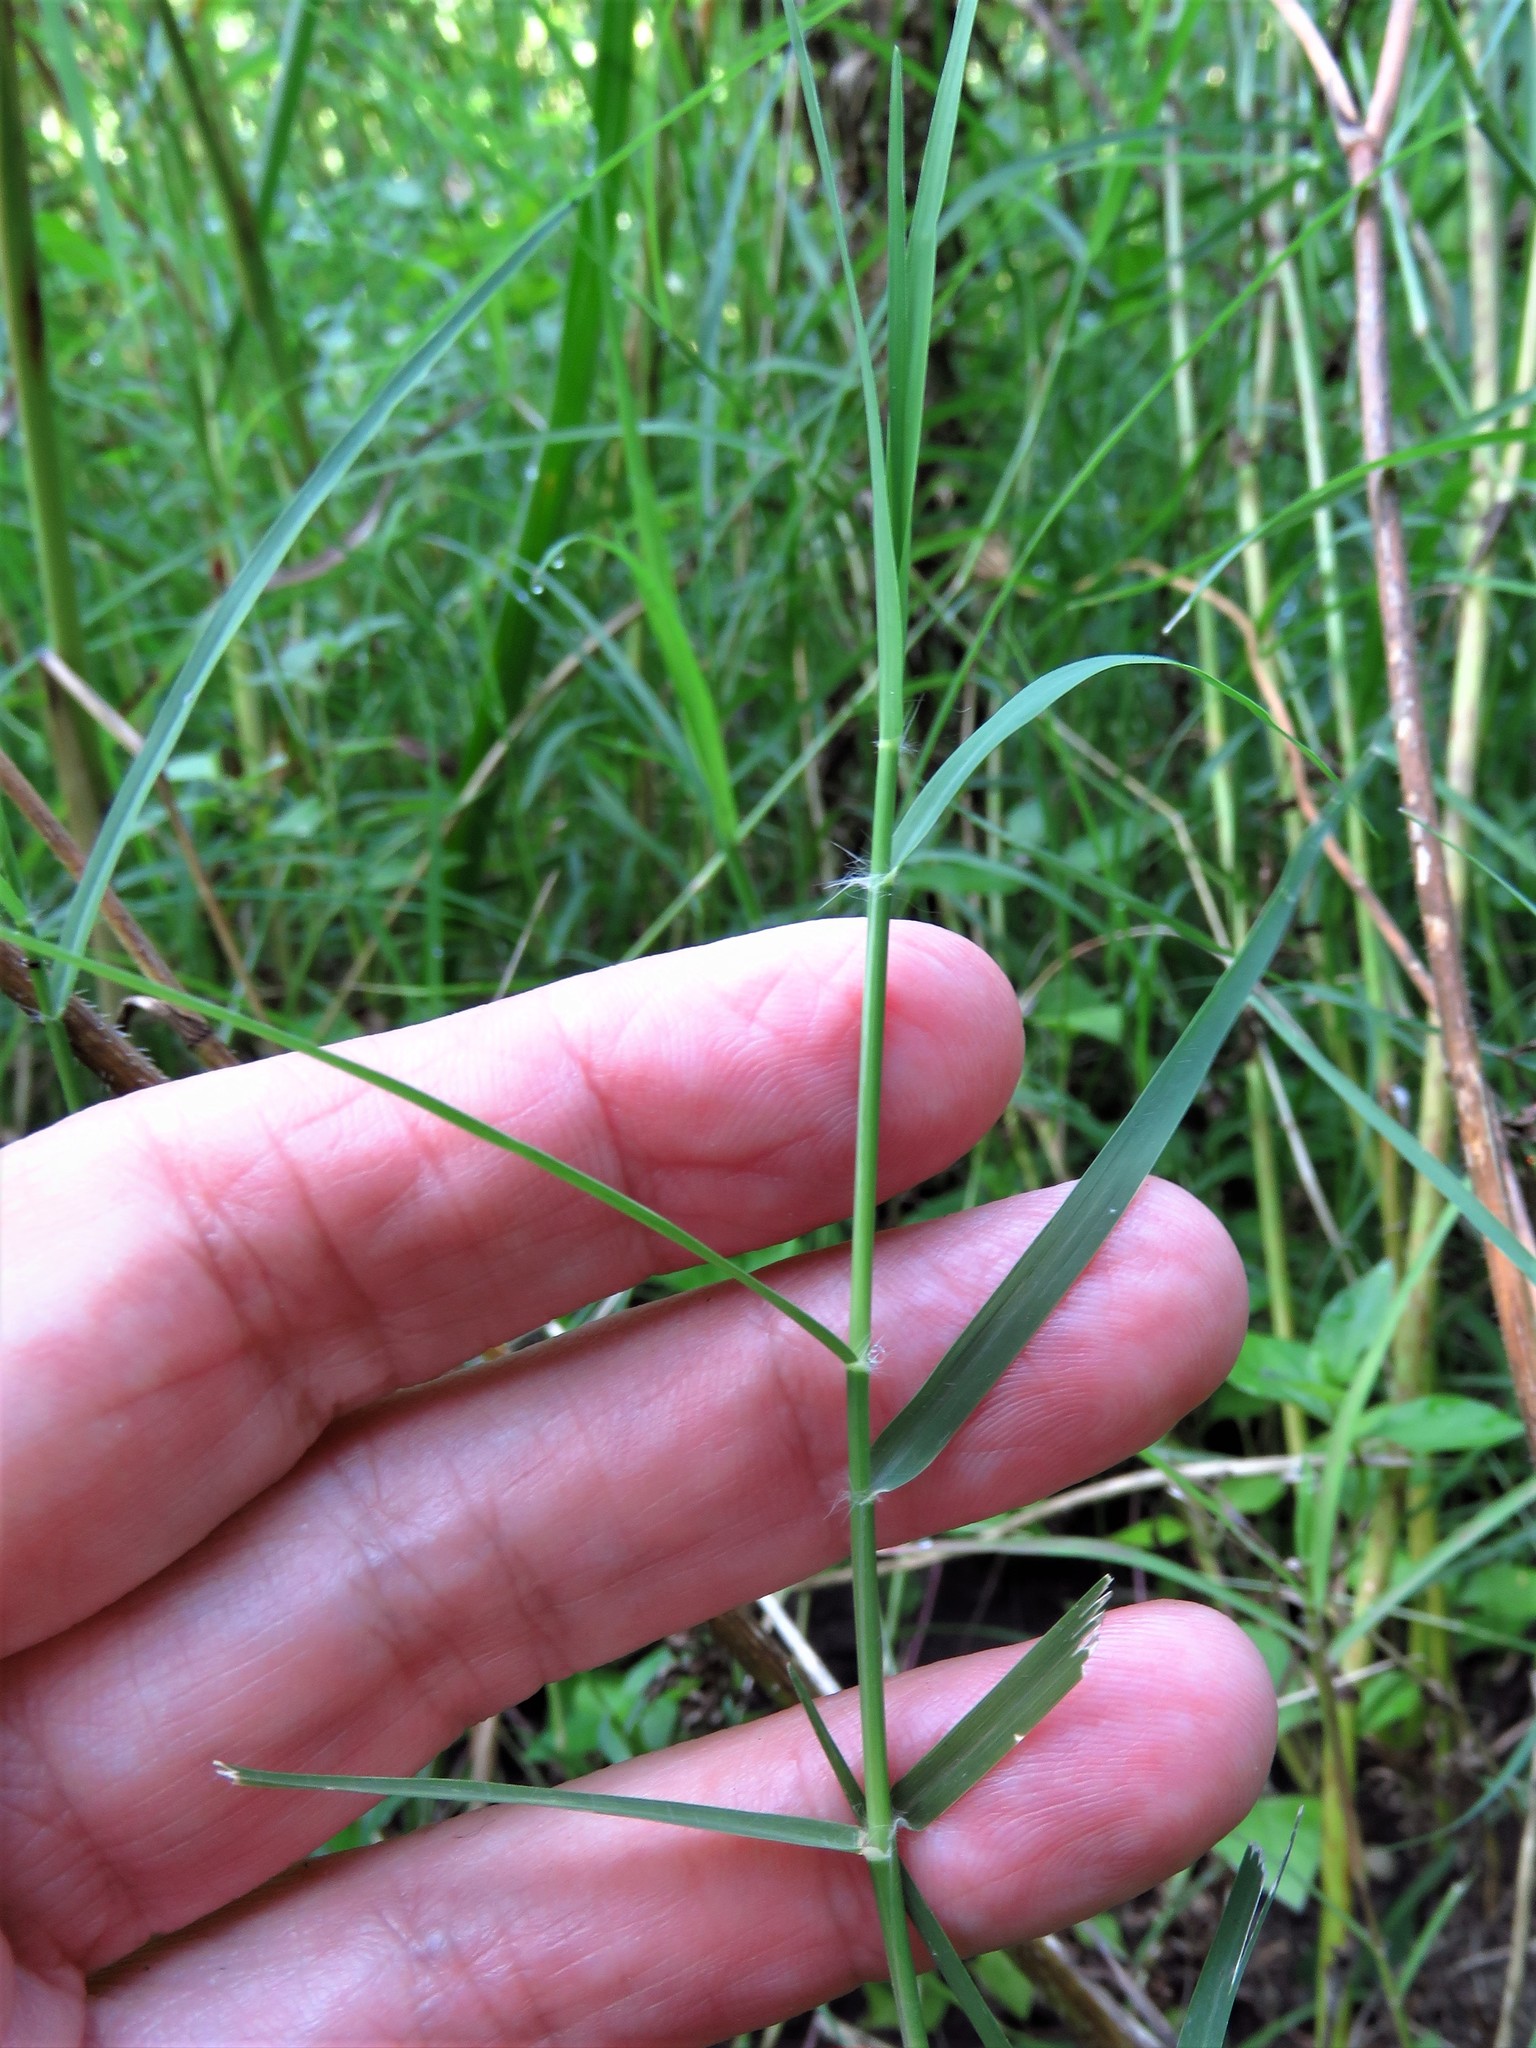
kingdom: Plantae
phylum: Tracheophyta
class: Liliopsida
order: Poales
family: Poaceae
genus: Cynodon
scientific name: Cynodon dactylon
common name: Bermuda grass
